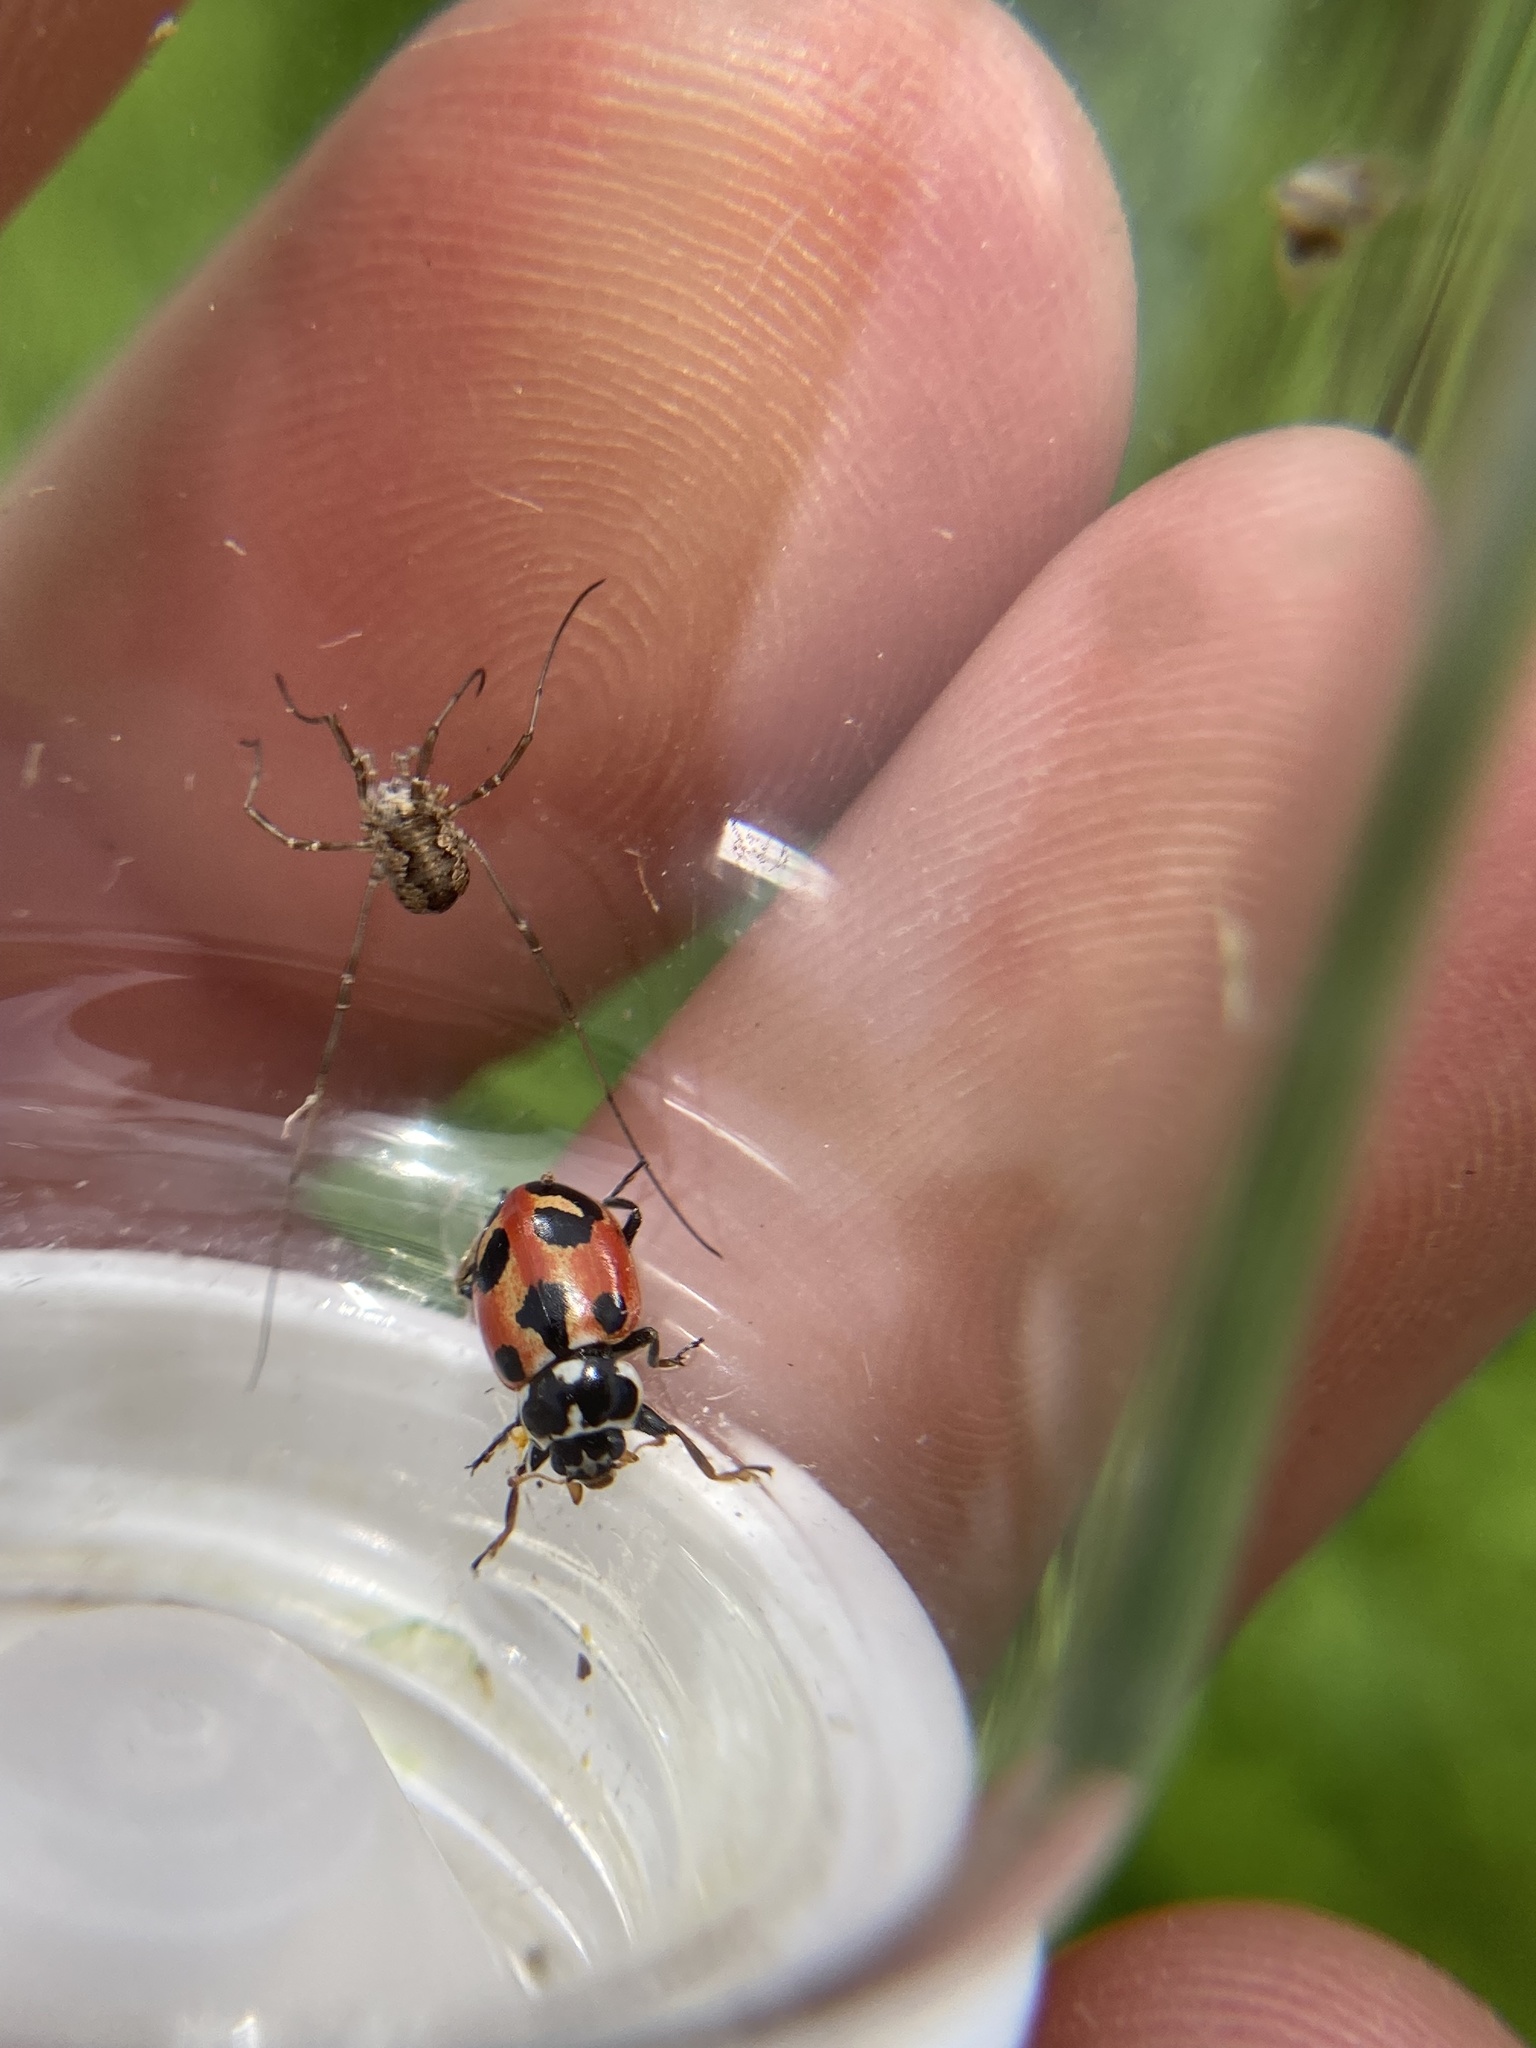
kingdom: Animalia
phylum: Arthropoda
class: Insecta
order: Coleoptera
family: Coccinellidae
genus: Hippodamia
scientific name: Hippodamia parenthesis
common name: Parenthesis lady beetle
